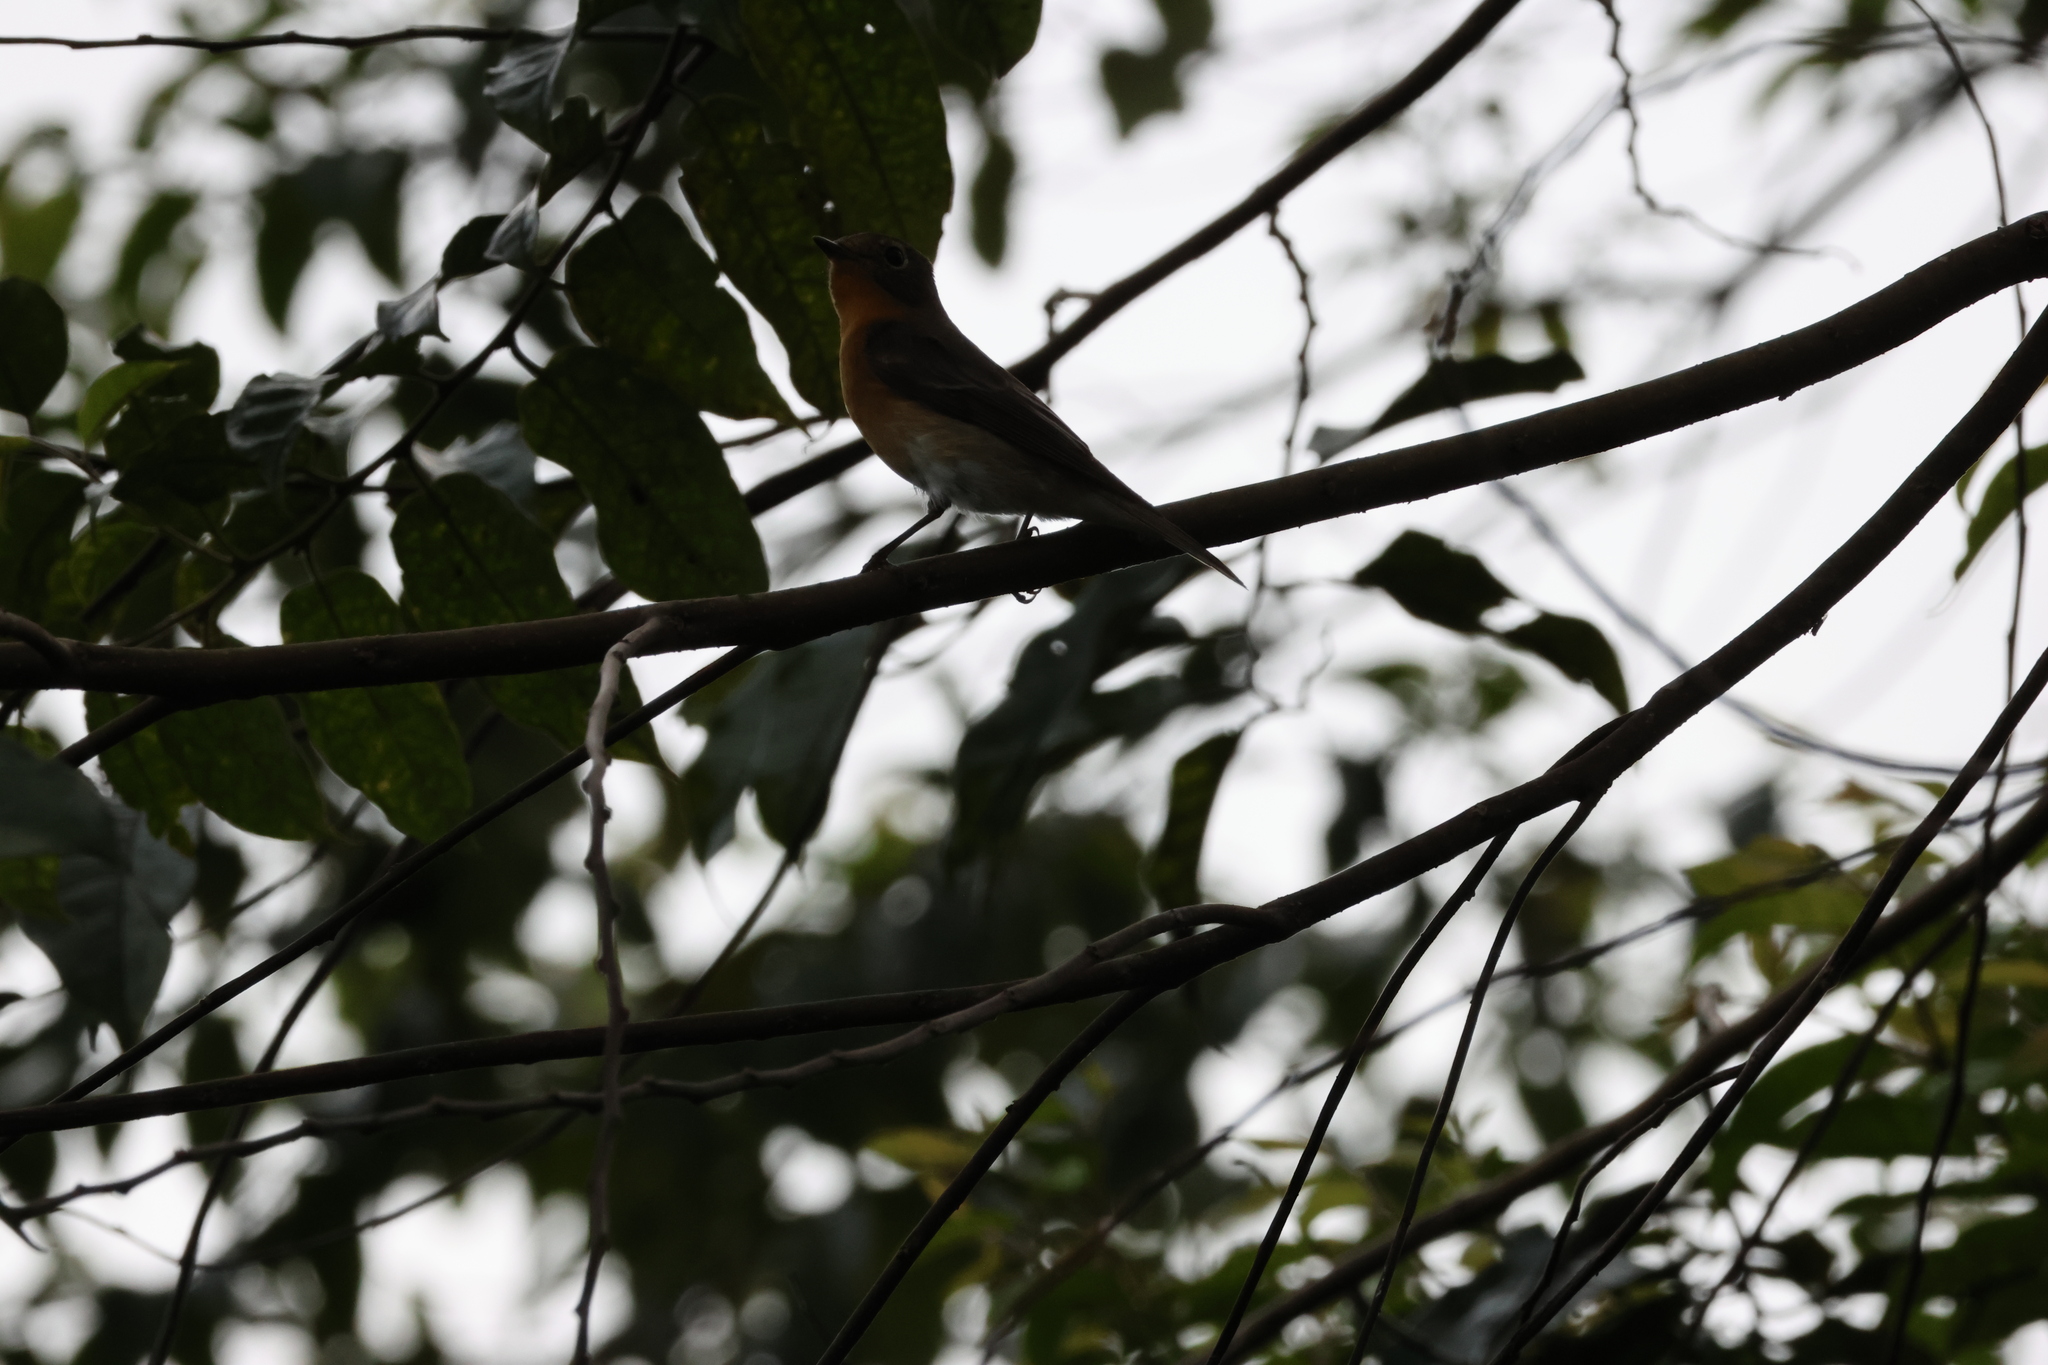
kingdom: Animalia
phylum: Chordata
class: Aves
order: Passeriformes
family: Muscicapidae
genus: Ficedula
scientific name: Ficedula mugimaki
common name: Mugimaki flycatcher
